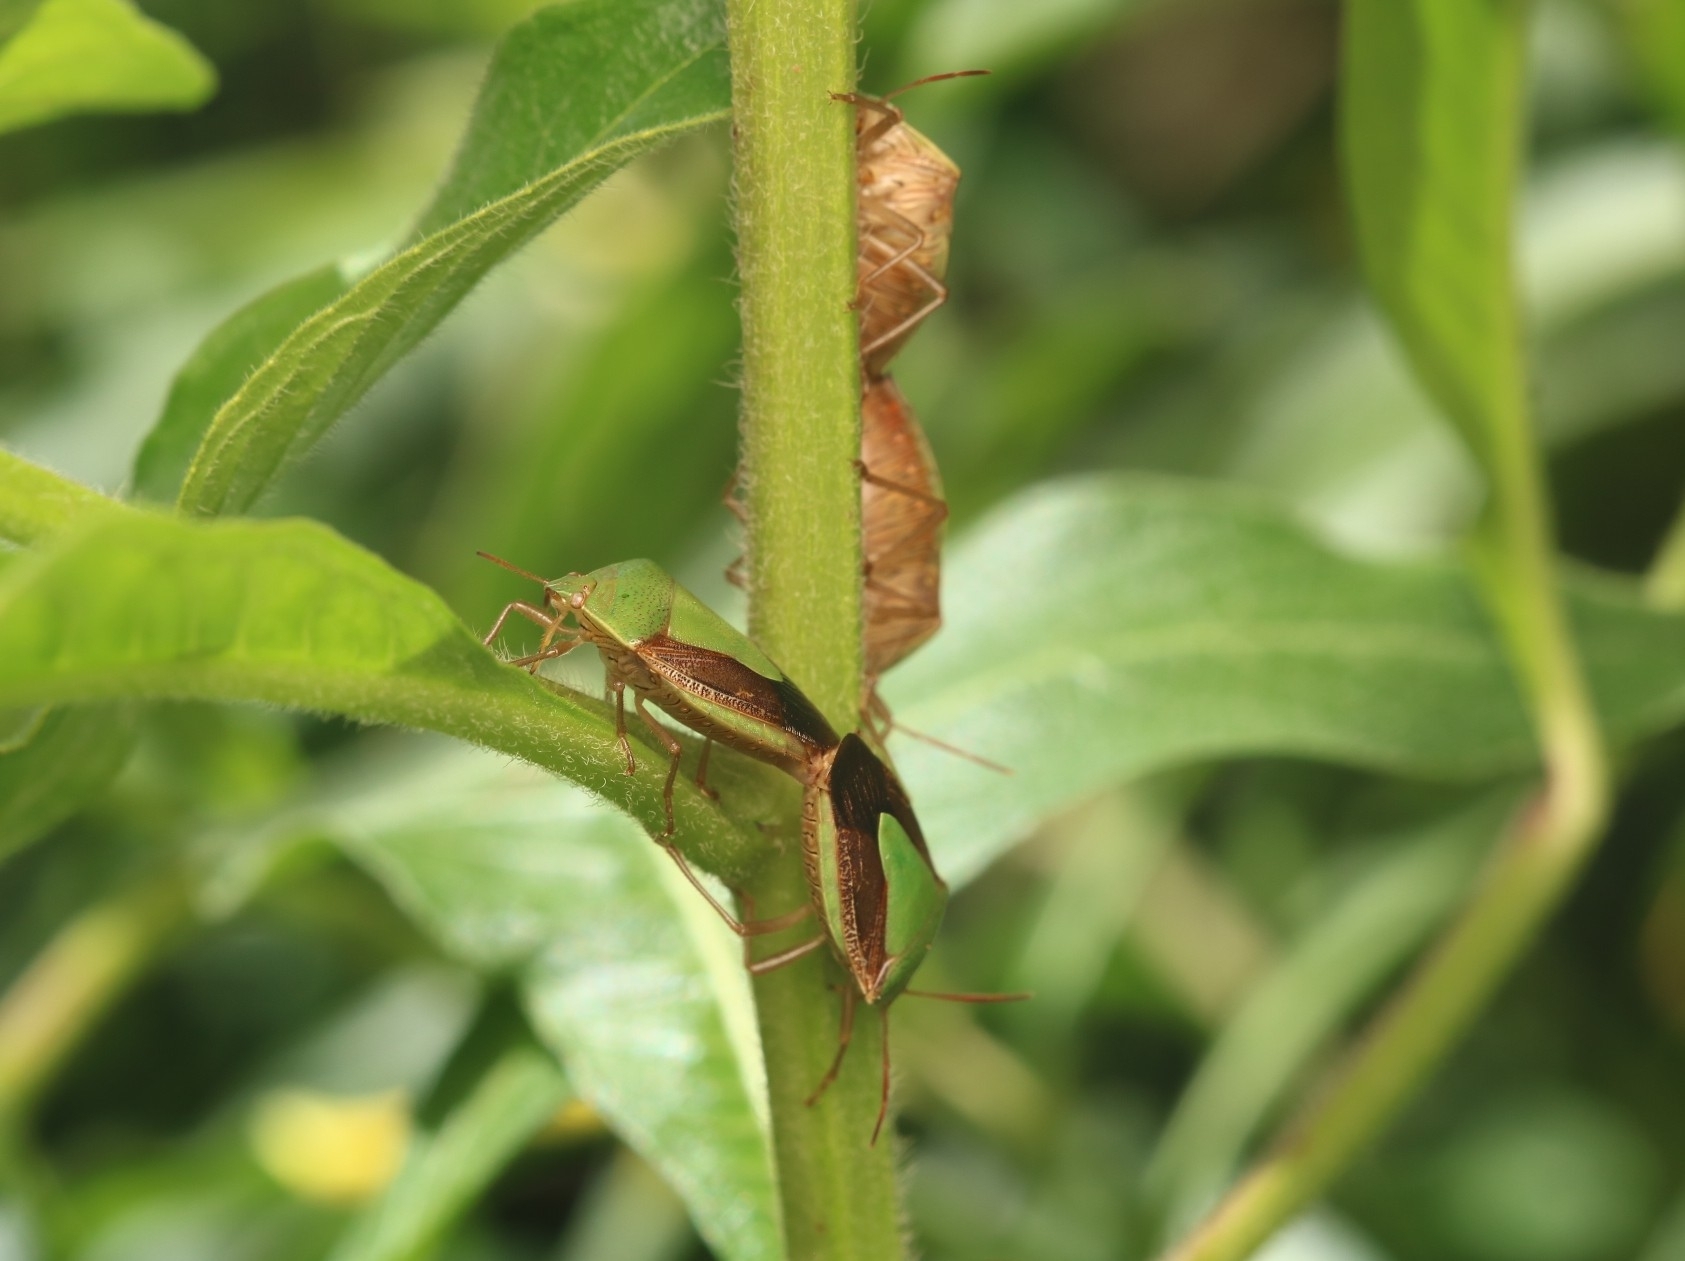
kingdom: Animalia
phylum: Arthropoda
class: Insecta
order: Hemiptera
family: Pentatomidae
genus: Edessa
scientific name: Edessa meditabunda
